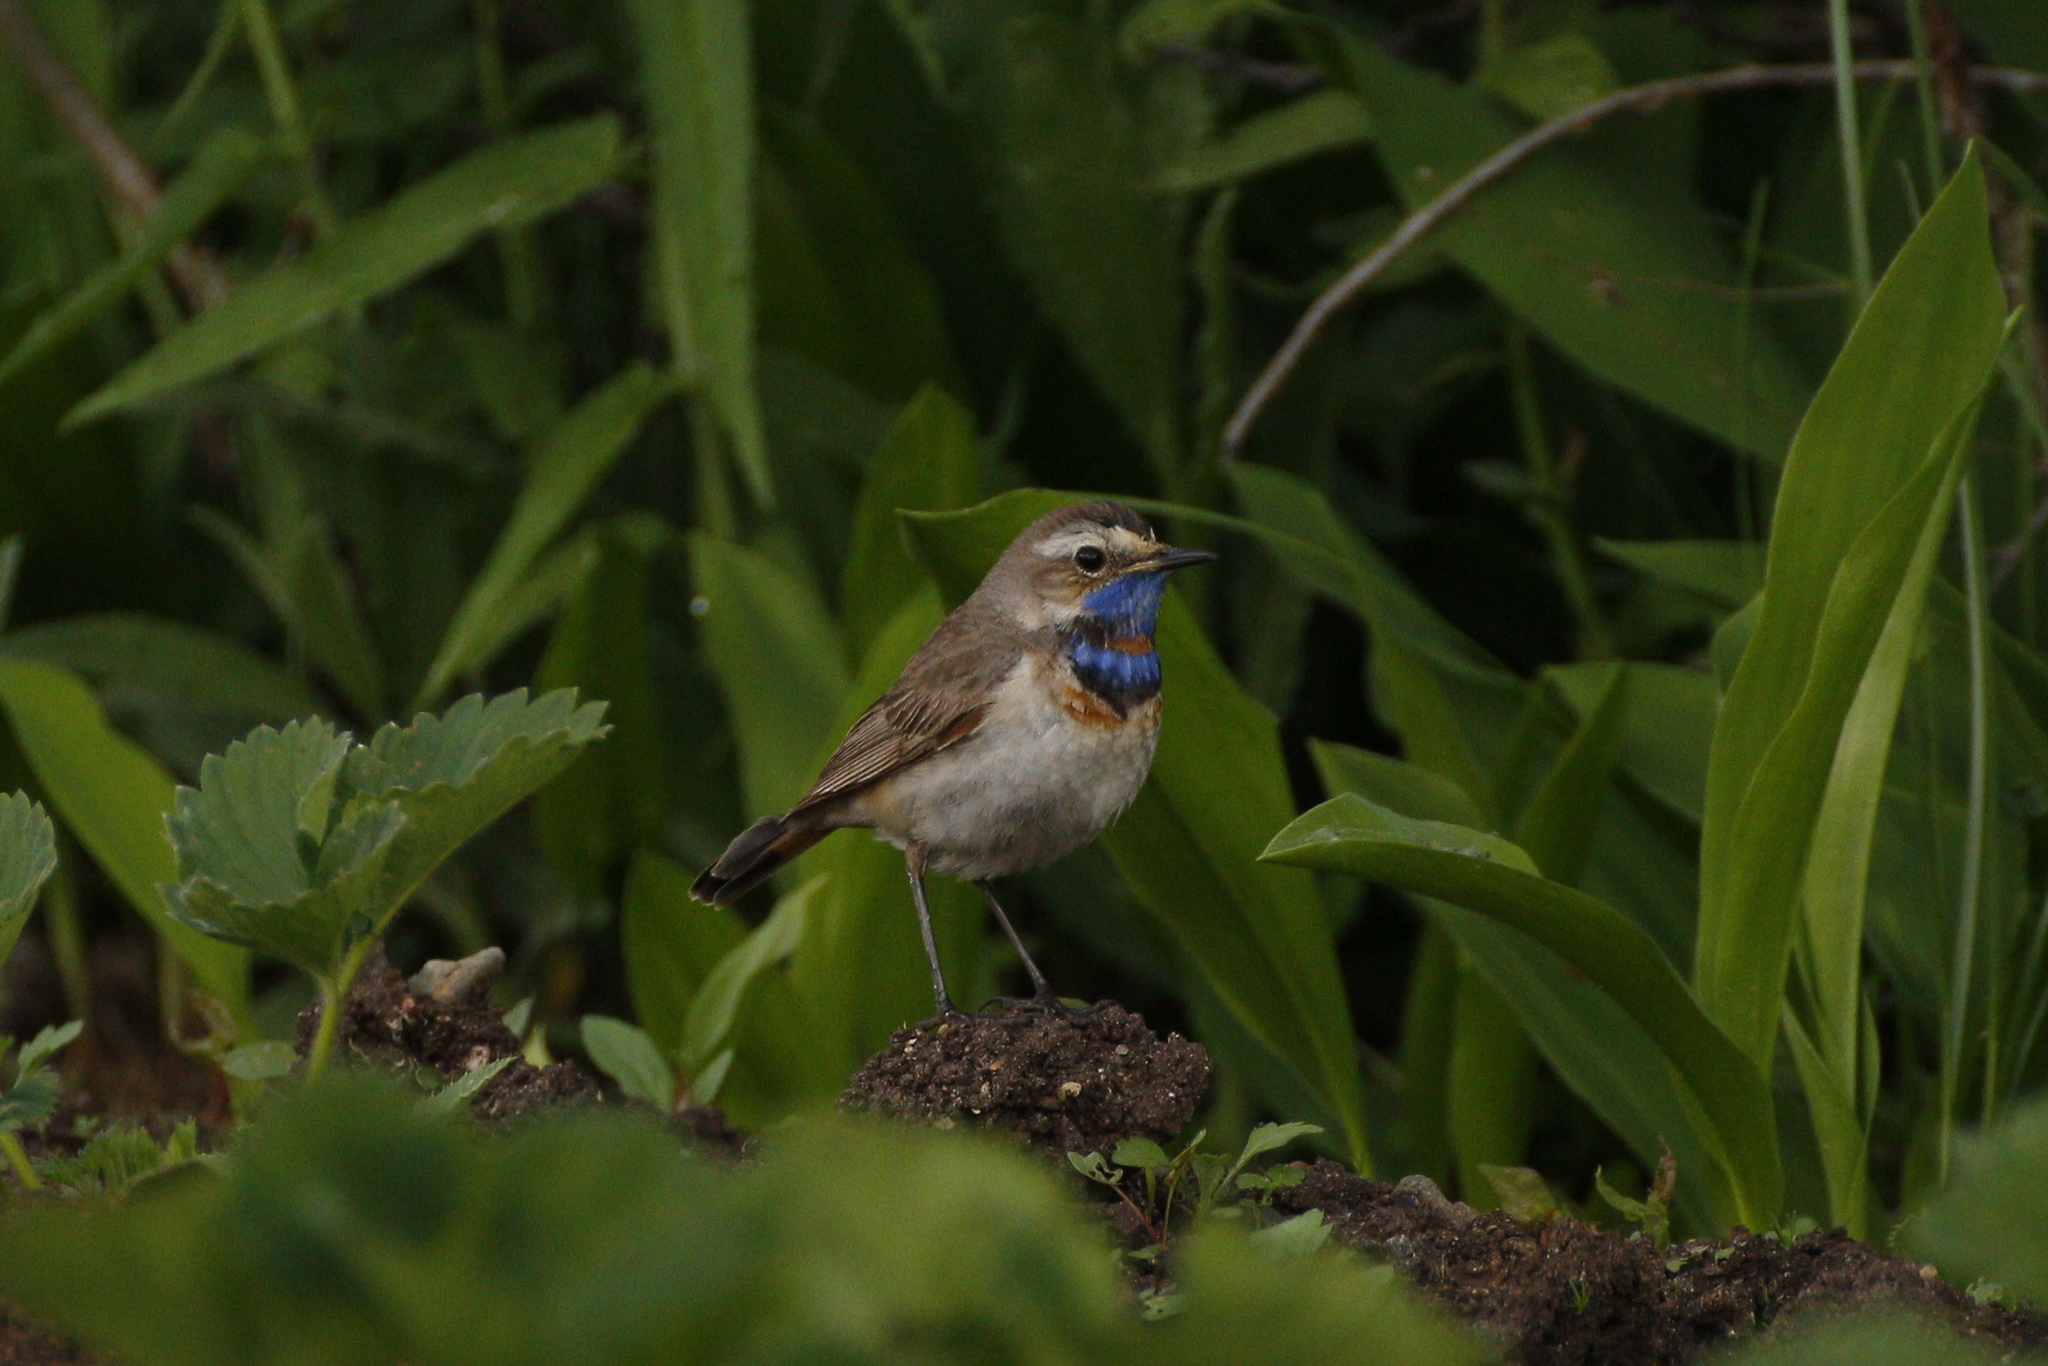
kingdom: Animalia
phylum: Chordata
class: Aves
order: Passeriformes
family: Muscicapidae
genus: Luscinia
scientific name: Luscinia svecica
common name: Bluethroat
